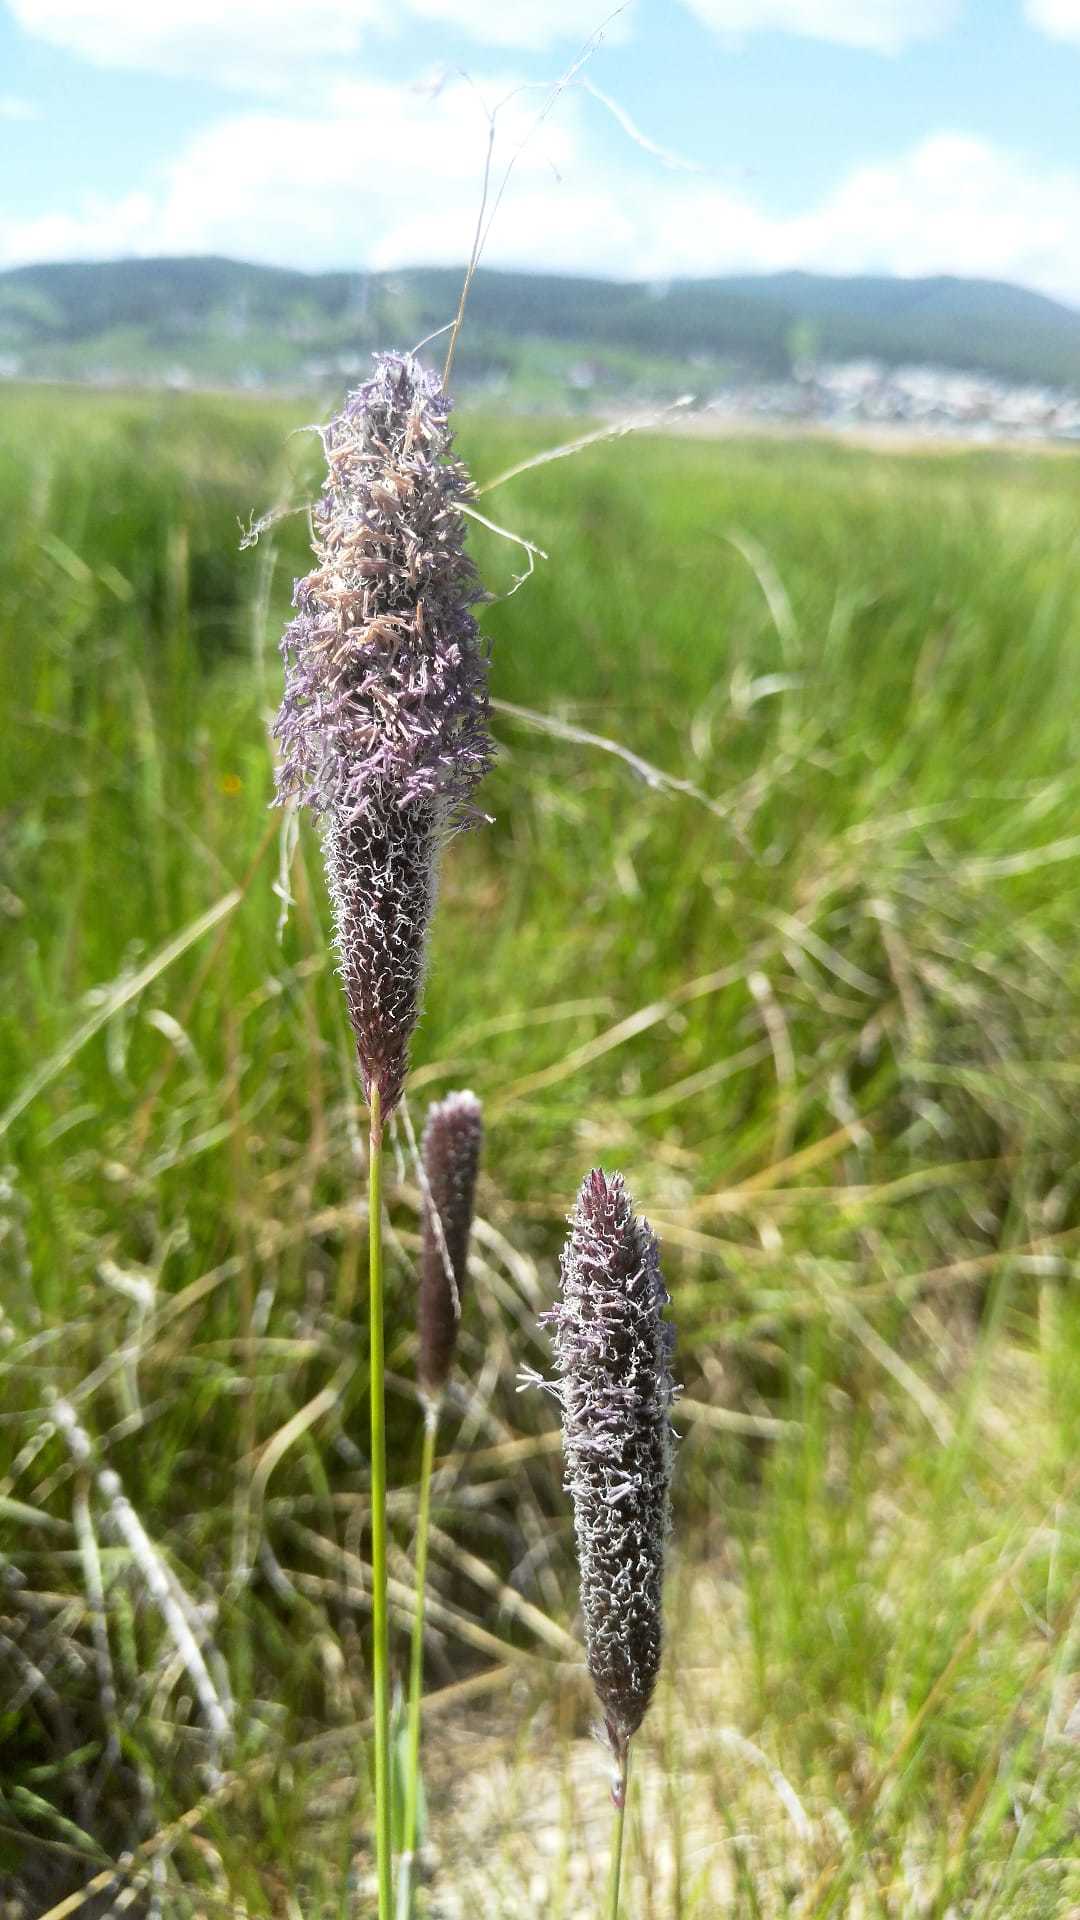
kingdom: Plantae
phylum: Tracheophyta
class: Liliopsida
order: Poales
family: Poaceae
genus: Alopecurus
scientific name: Alopecurus pratensis
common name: Meadow foxtail
